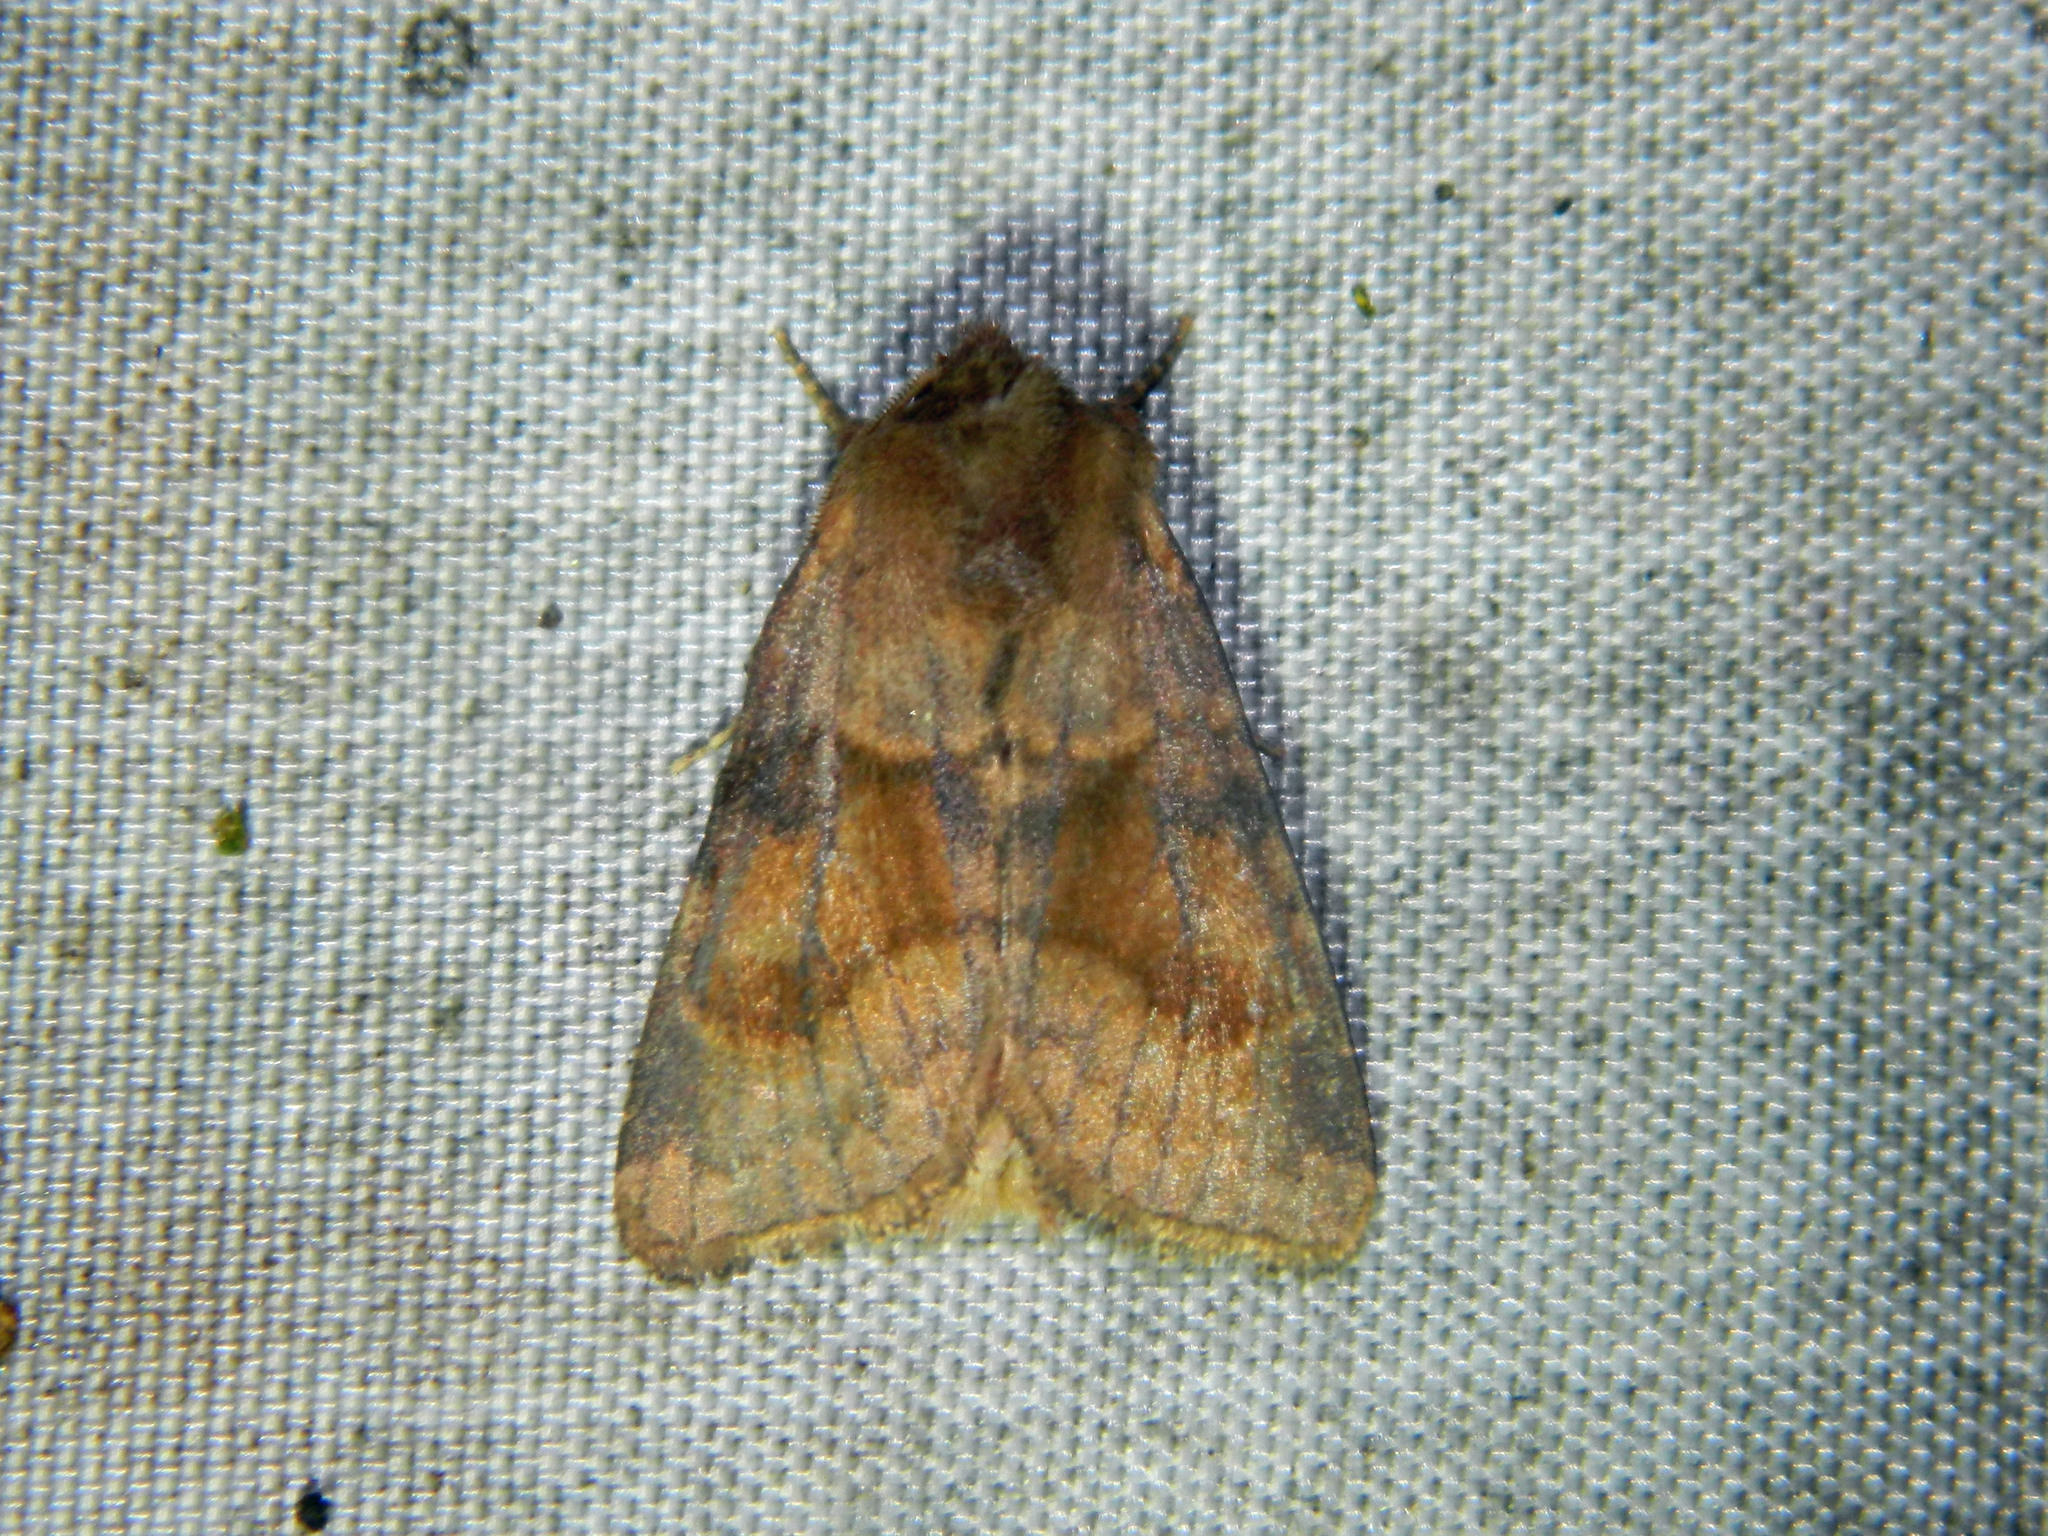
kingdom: Animalia
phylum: Arthropoda
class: Insecta
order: Lepidoptera
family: Noctuidae
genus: Nephelodes
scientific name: Nephelodes minians
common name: Bronzed cutworm
